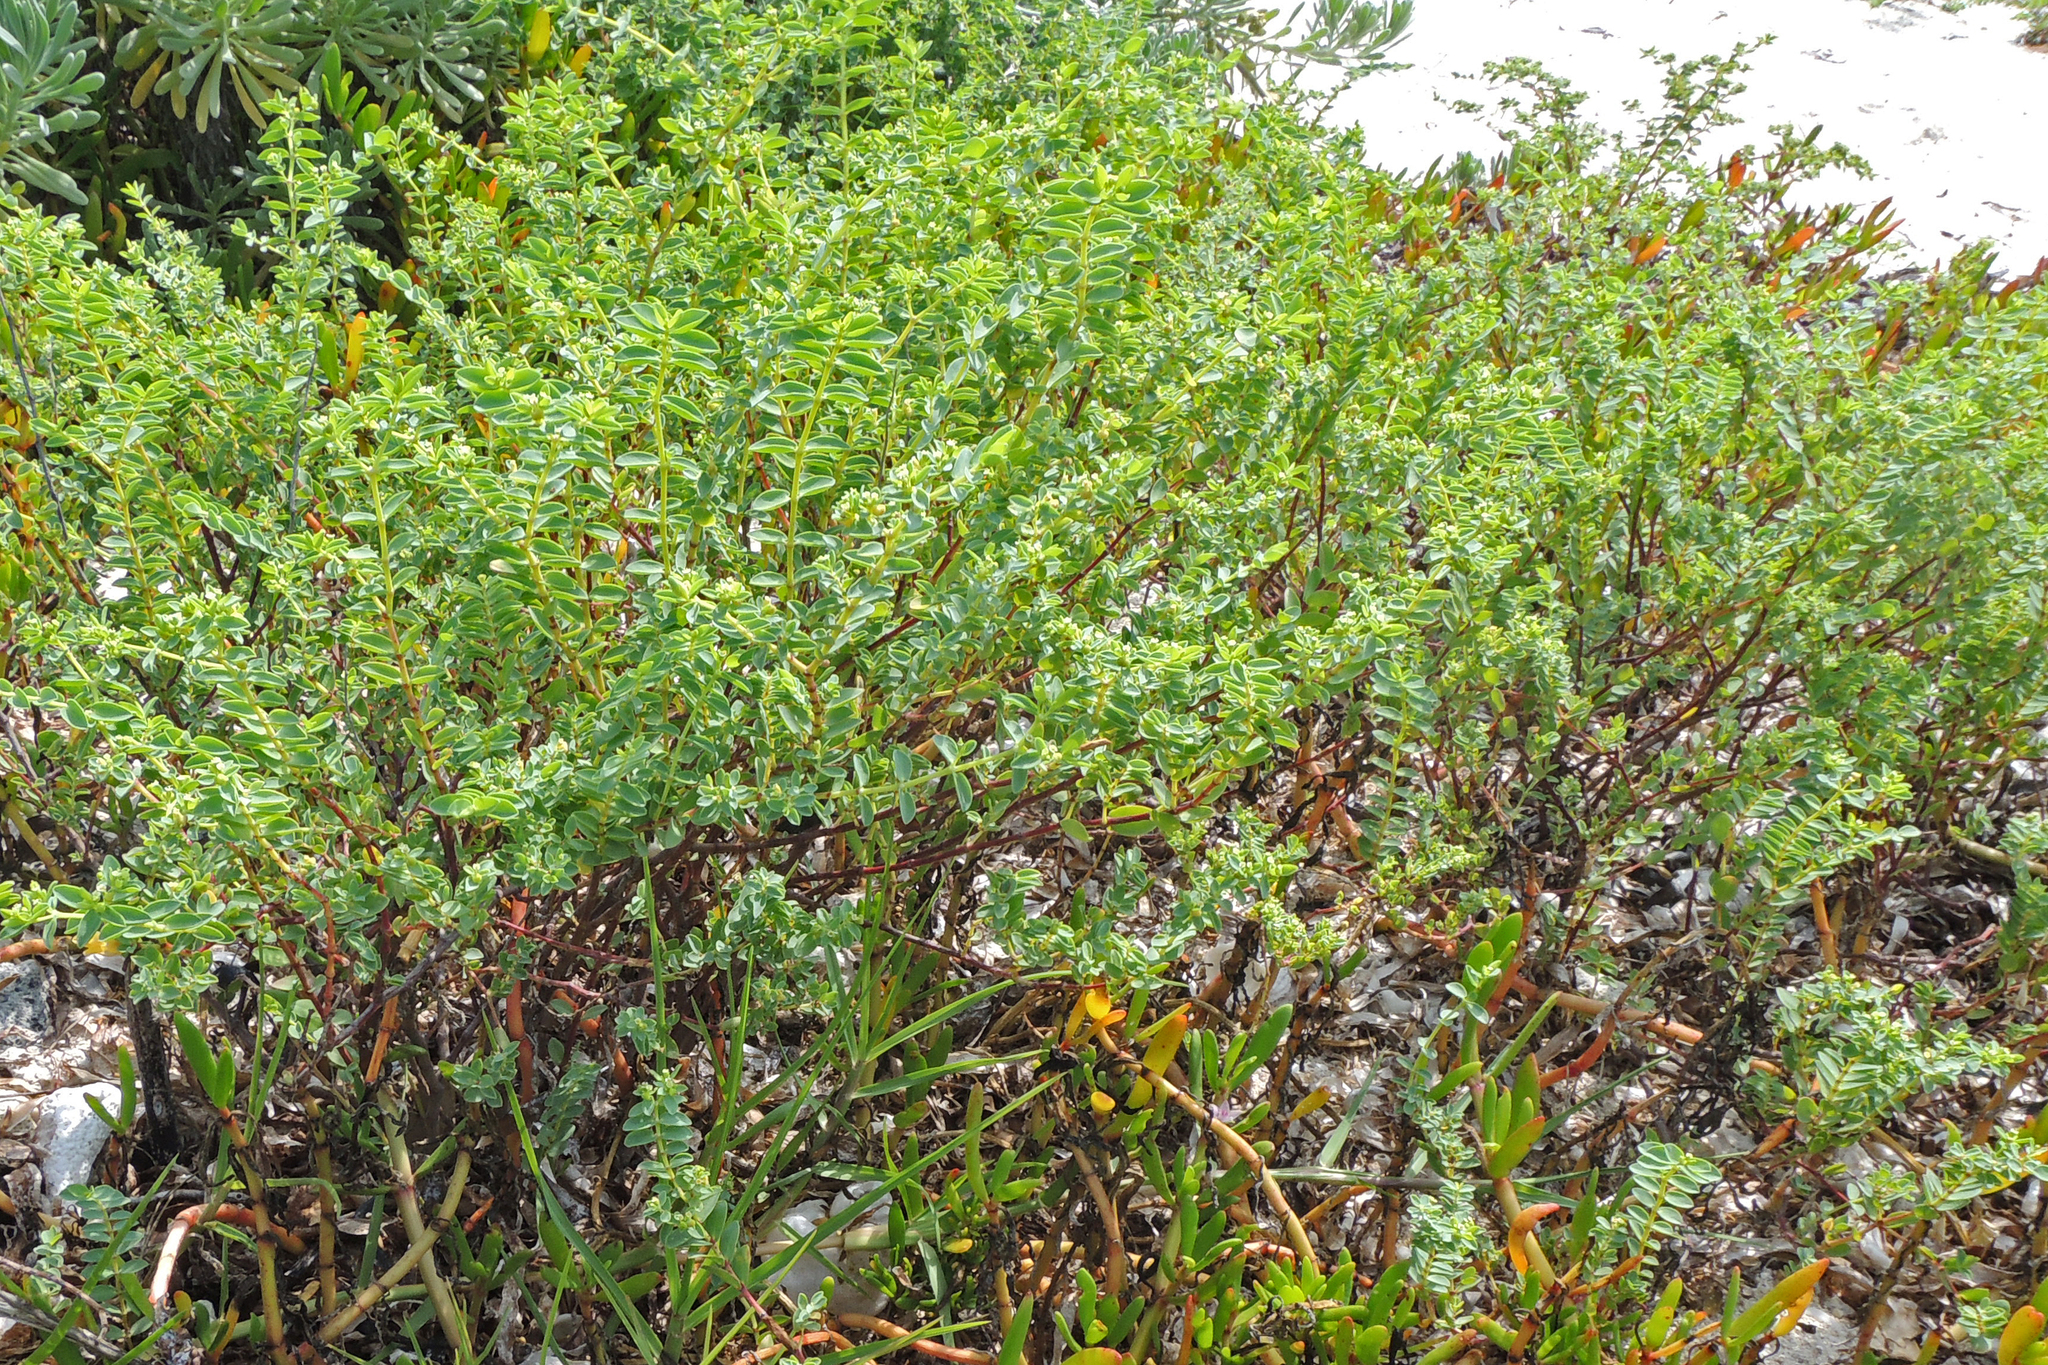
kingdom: Plantae
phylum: Tracheophyta
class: Magnoliopsida
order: Malpighiales
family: Euphorbiaceae
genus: Euphorbia
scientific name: Euphorbia mesembryanthemifolia
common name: Coastal beach sandmat
